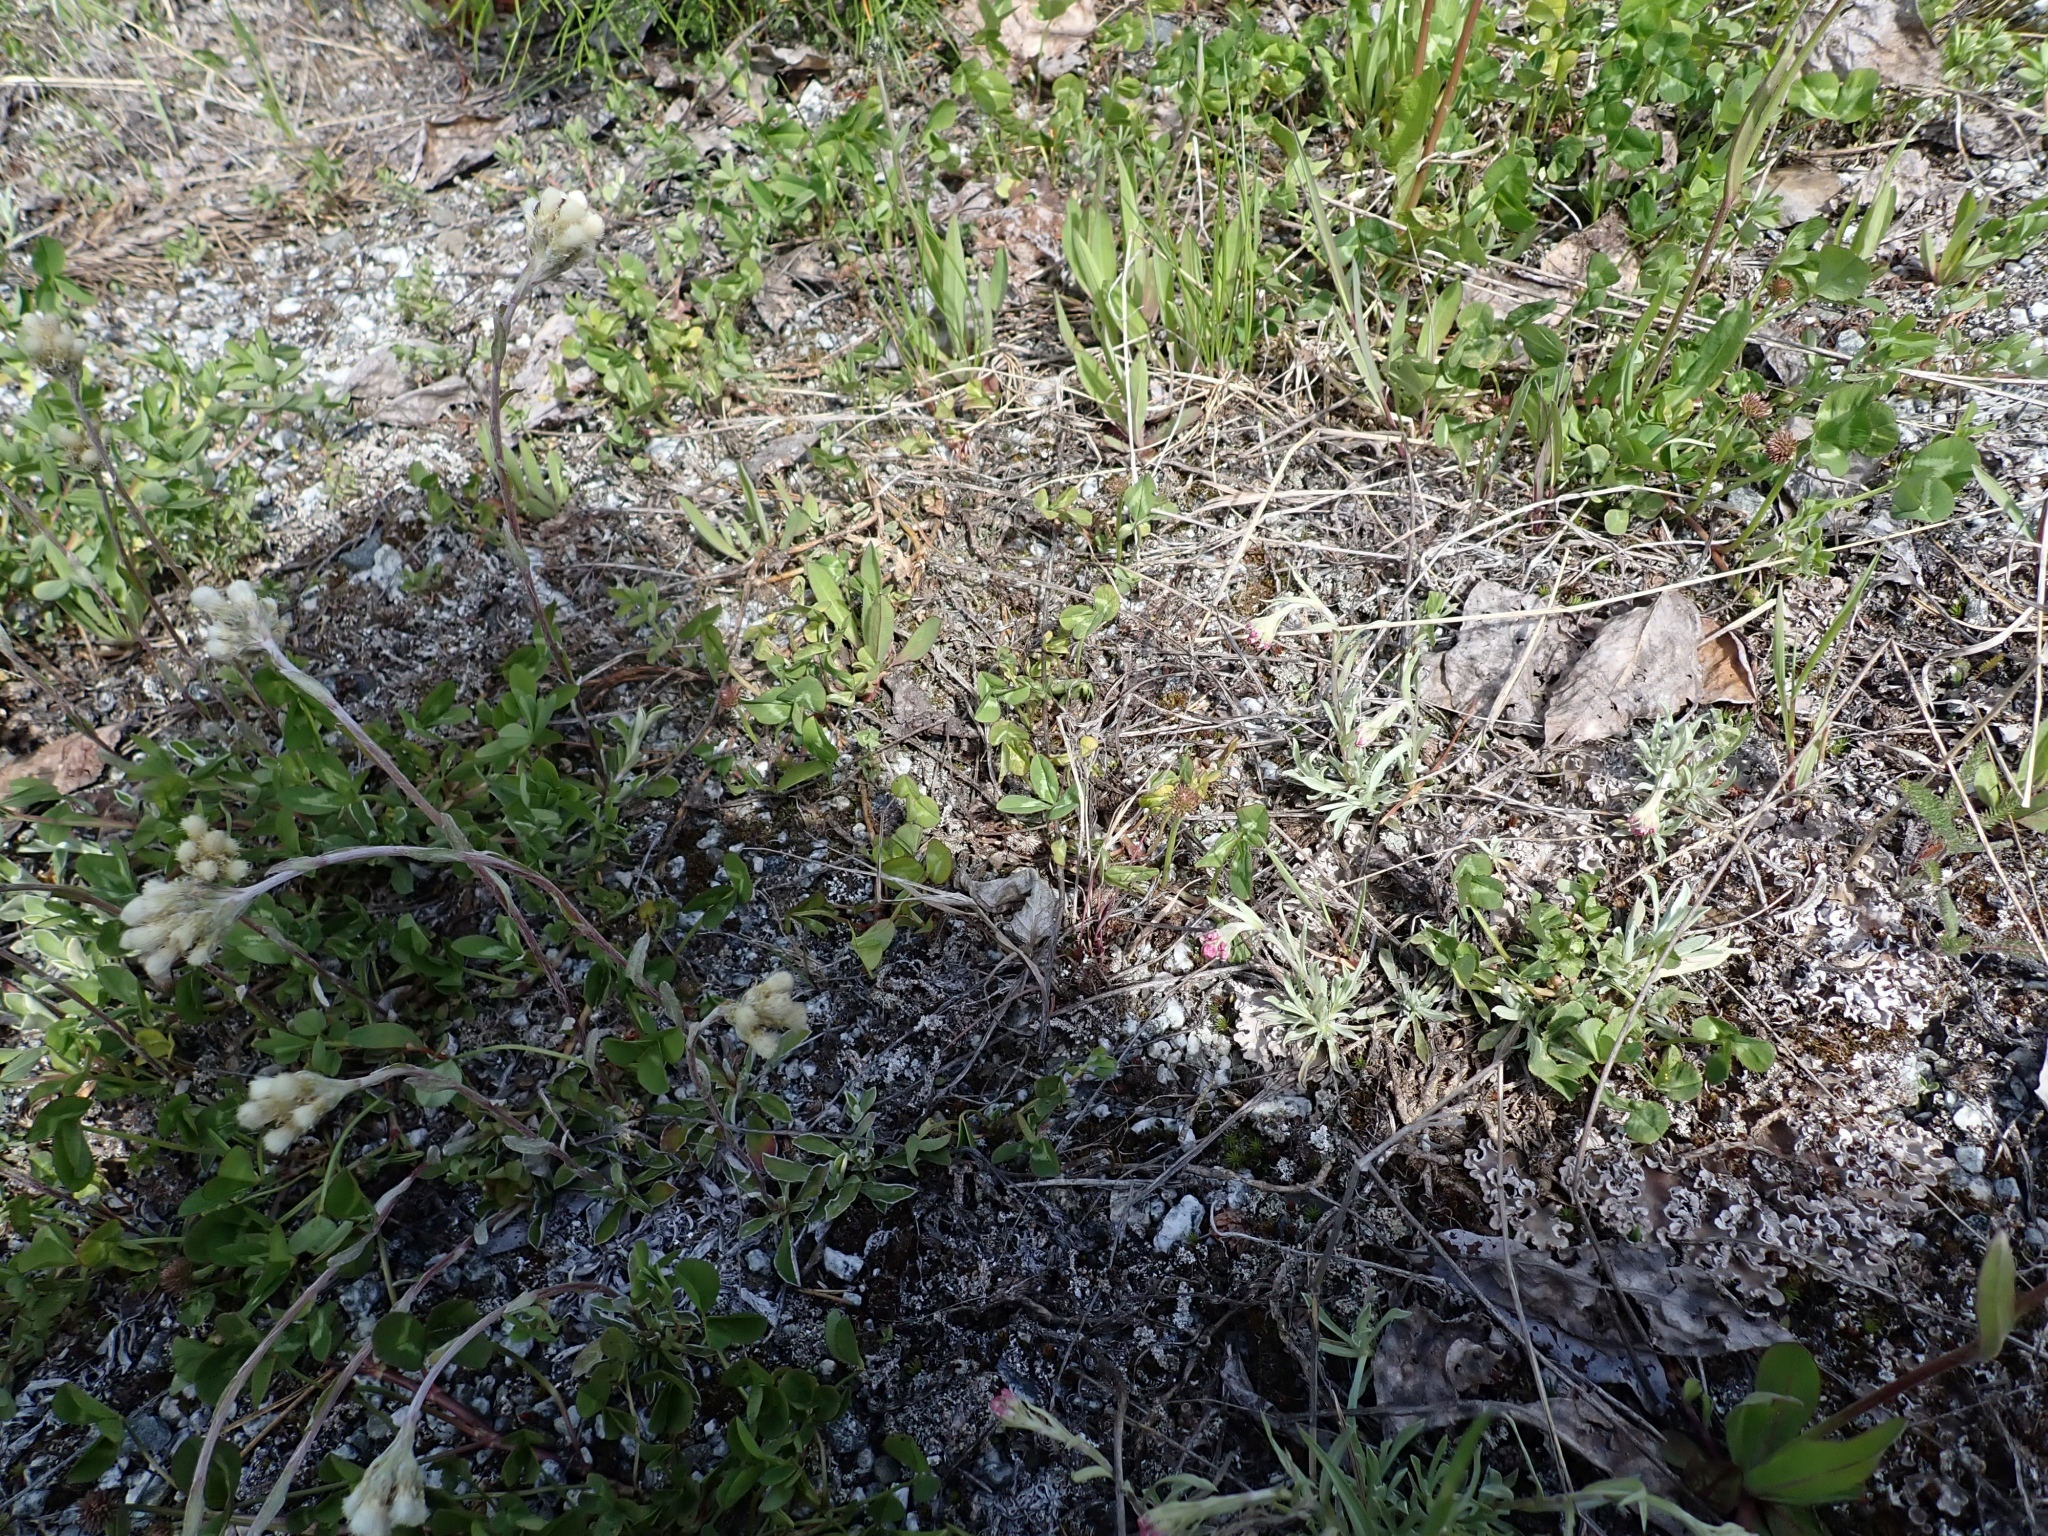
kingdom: Plantae
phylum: Tracheophyta
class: Magnoliopsida
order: Fabales
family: Fabaceae
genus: Trifolium
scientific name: Trifolium repens
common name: White clover
